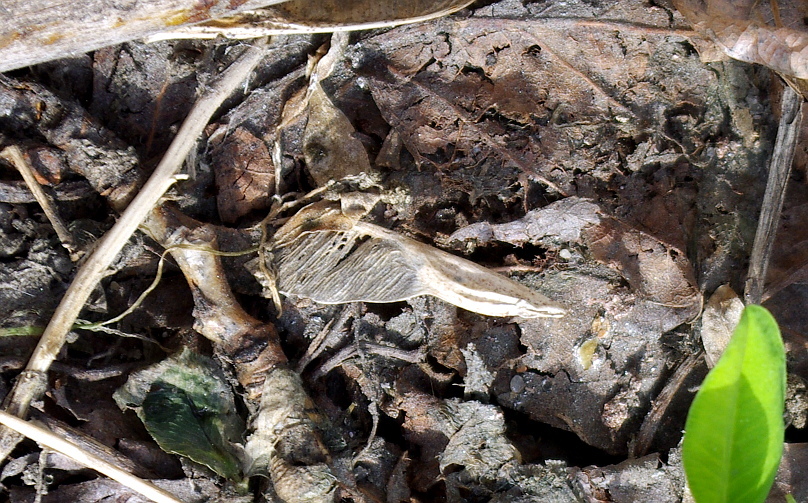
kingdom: Plantae
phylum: Tracheophyta
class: Magnoliopsida
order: Sapindales
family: Sapindaceae
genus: Acer
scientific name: Acer negundo
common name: Ashleaf maple
